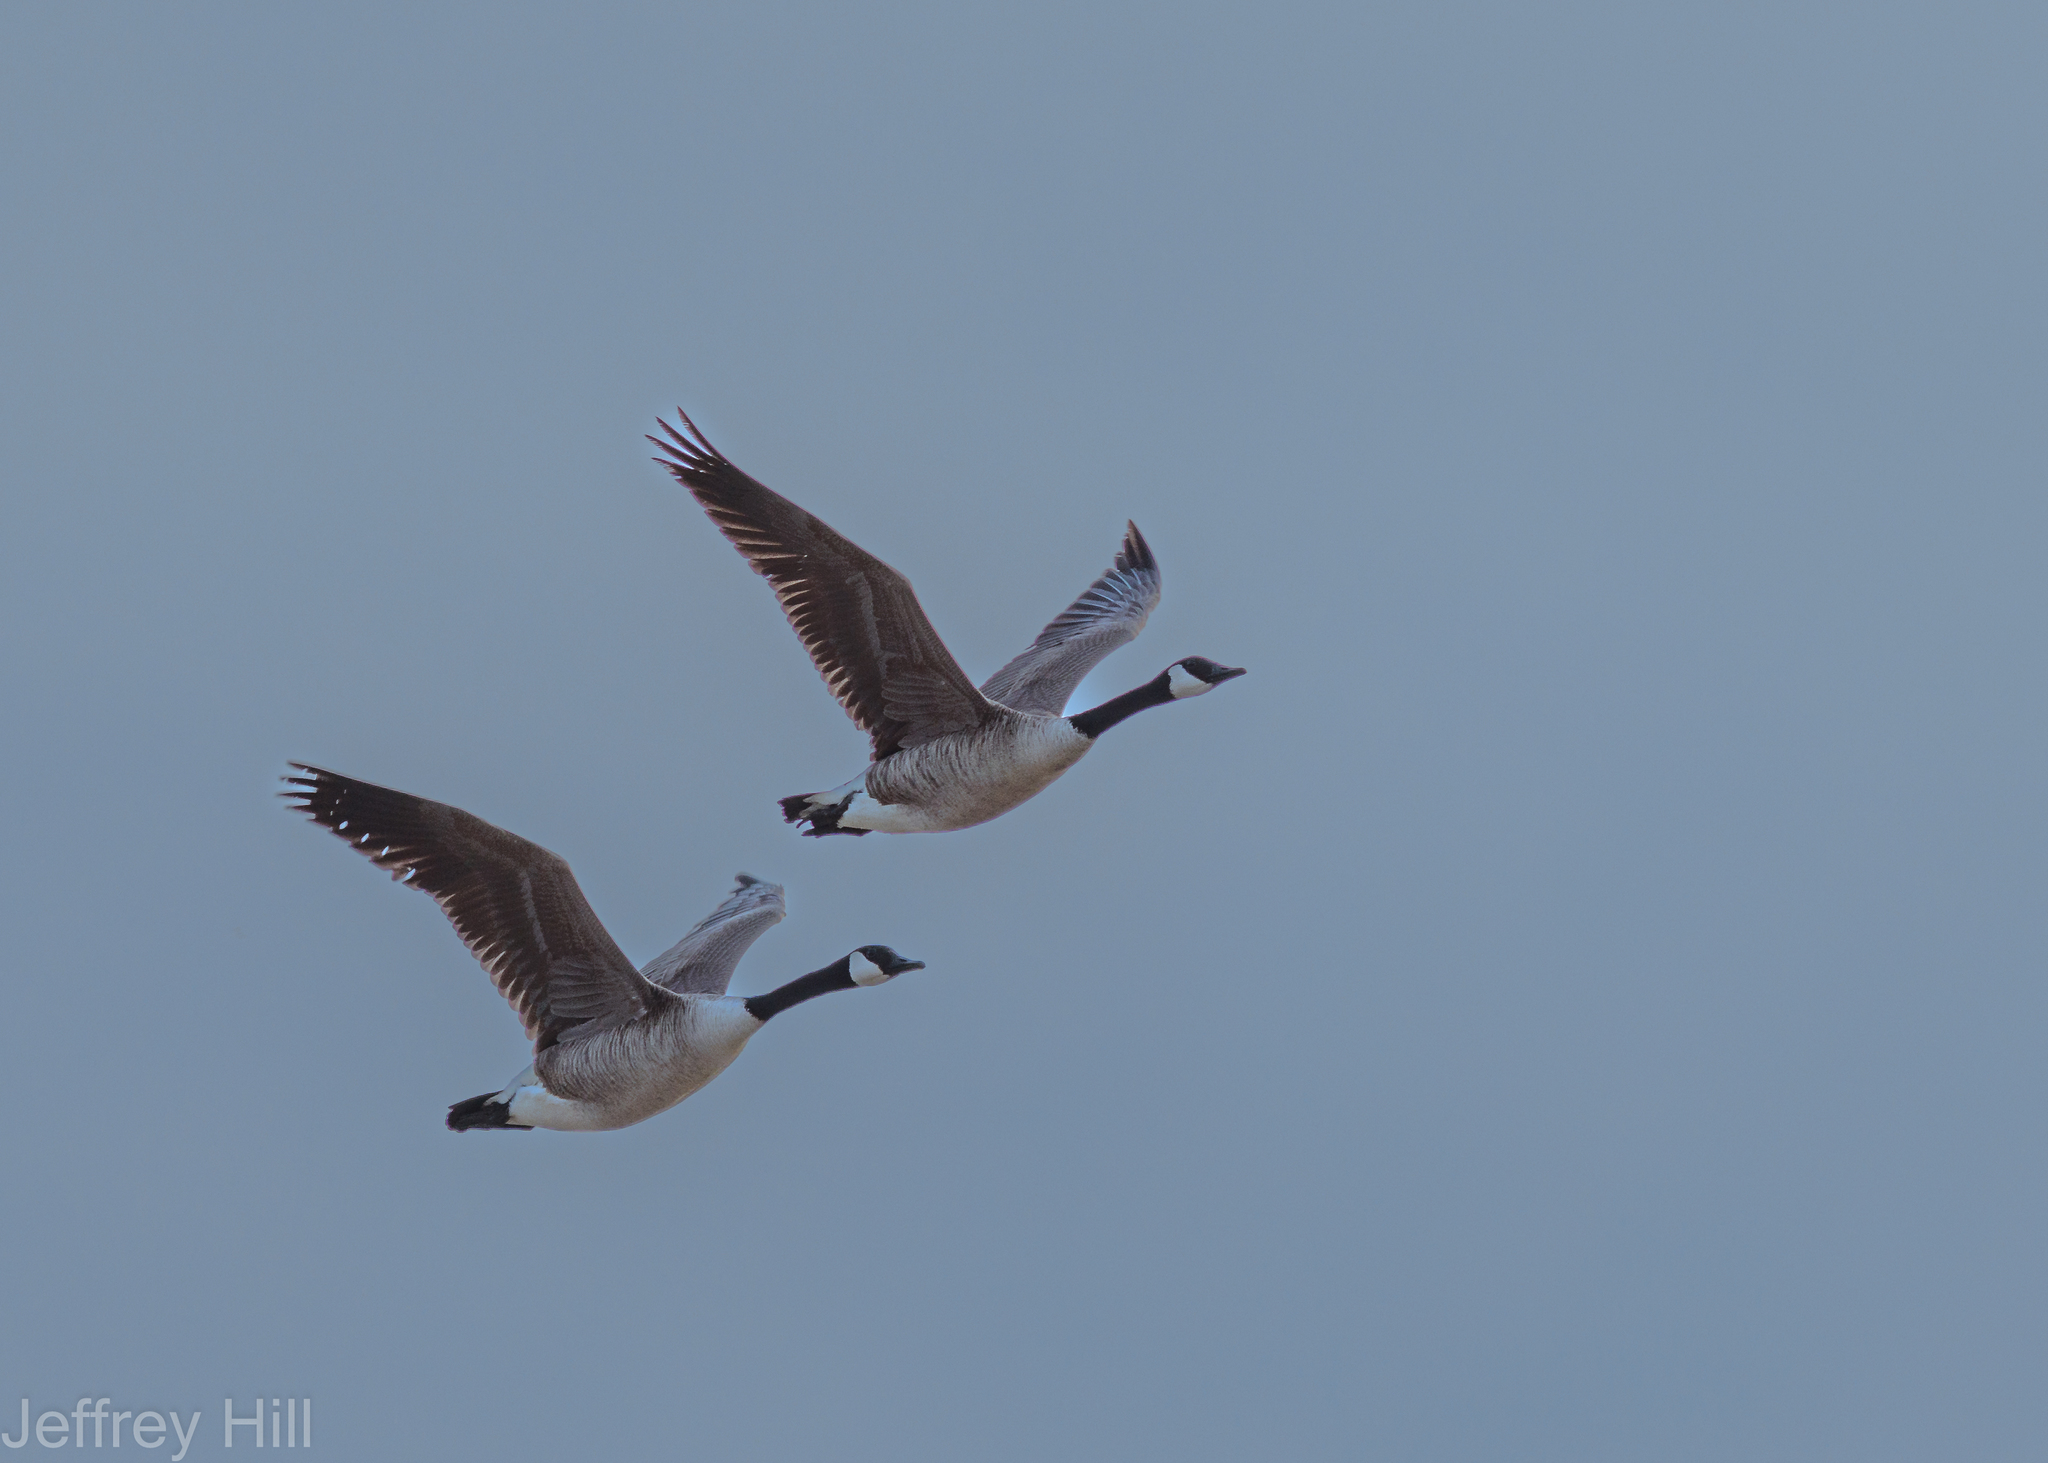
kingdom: Animalia
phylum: Chordata
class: Aves
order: Anseriformes
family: Anatidae
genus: Branta
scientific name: Branta canadensis
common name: Canada goose
